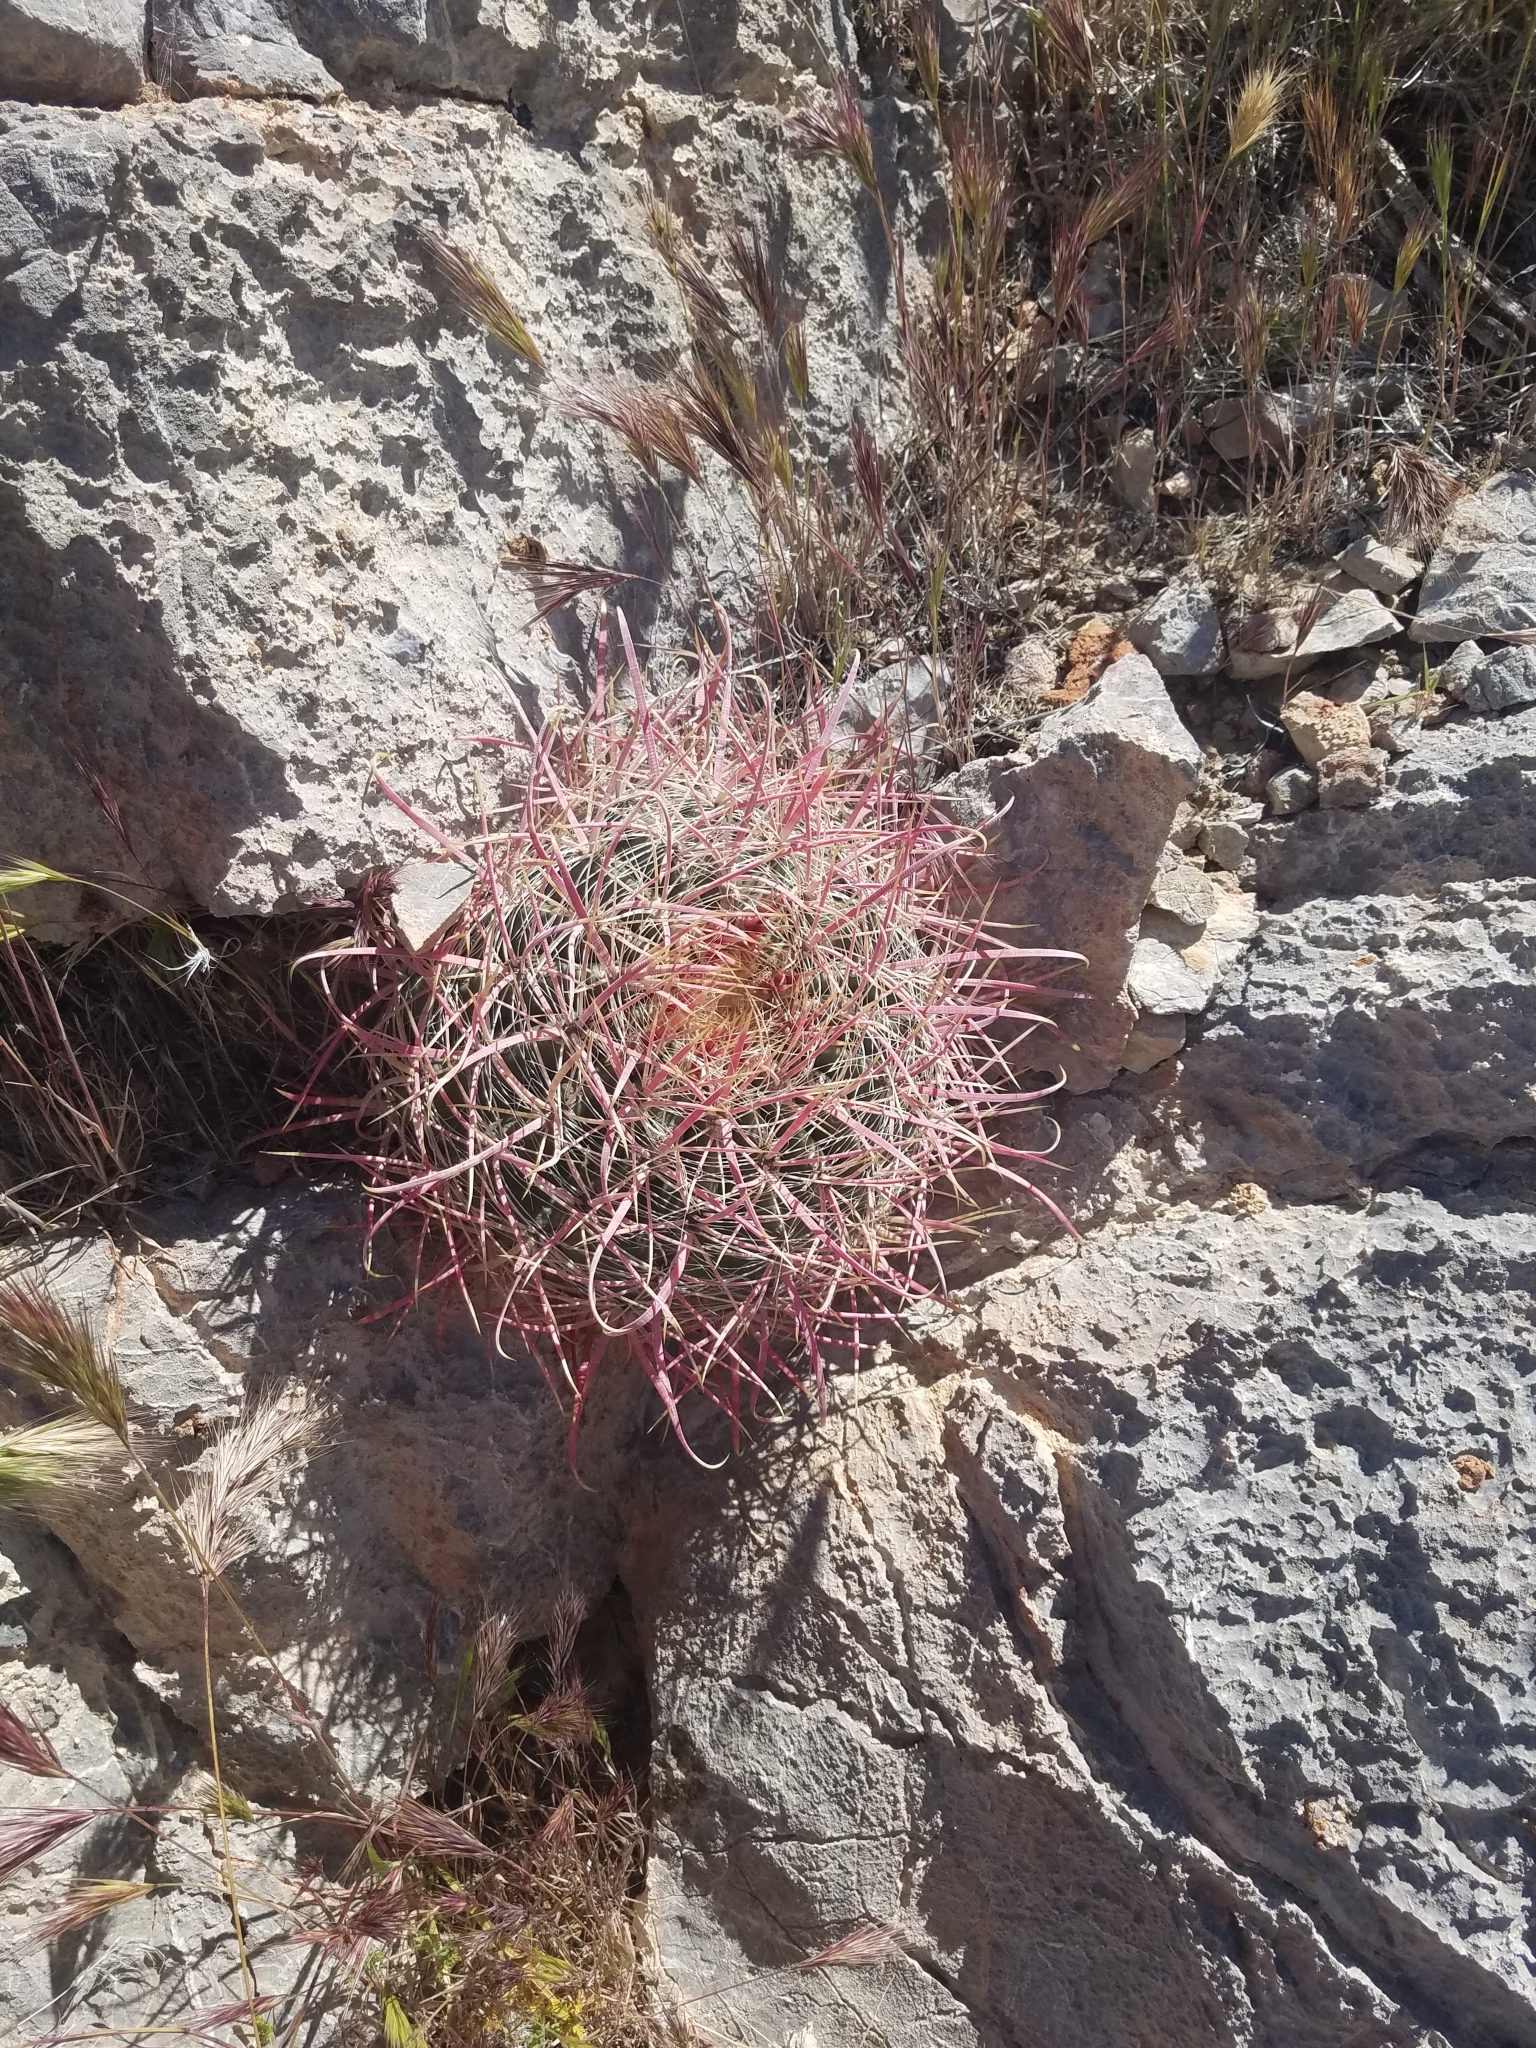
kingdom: Plantae
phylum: Tracheophyta
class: Magnoliopsida
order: Caryophyllales
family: Cactaceae
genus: Ferocactus
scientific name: Ferocactus cylindraceus
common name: California barrel cactus
